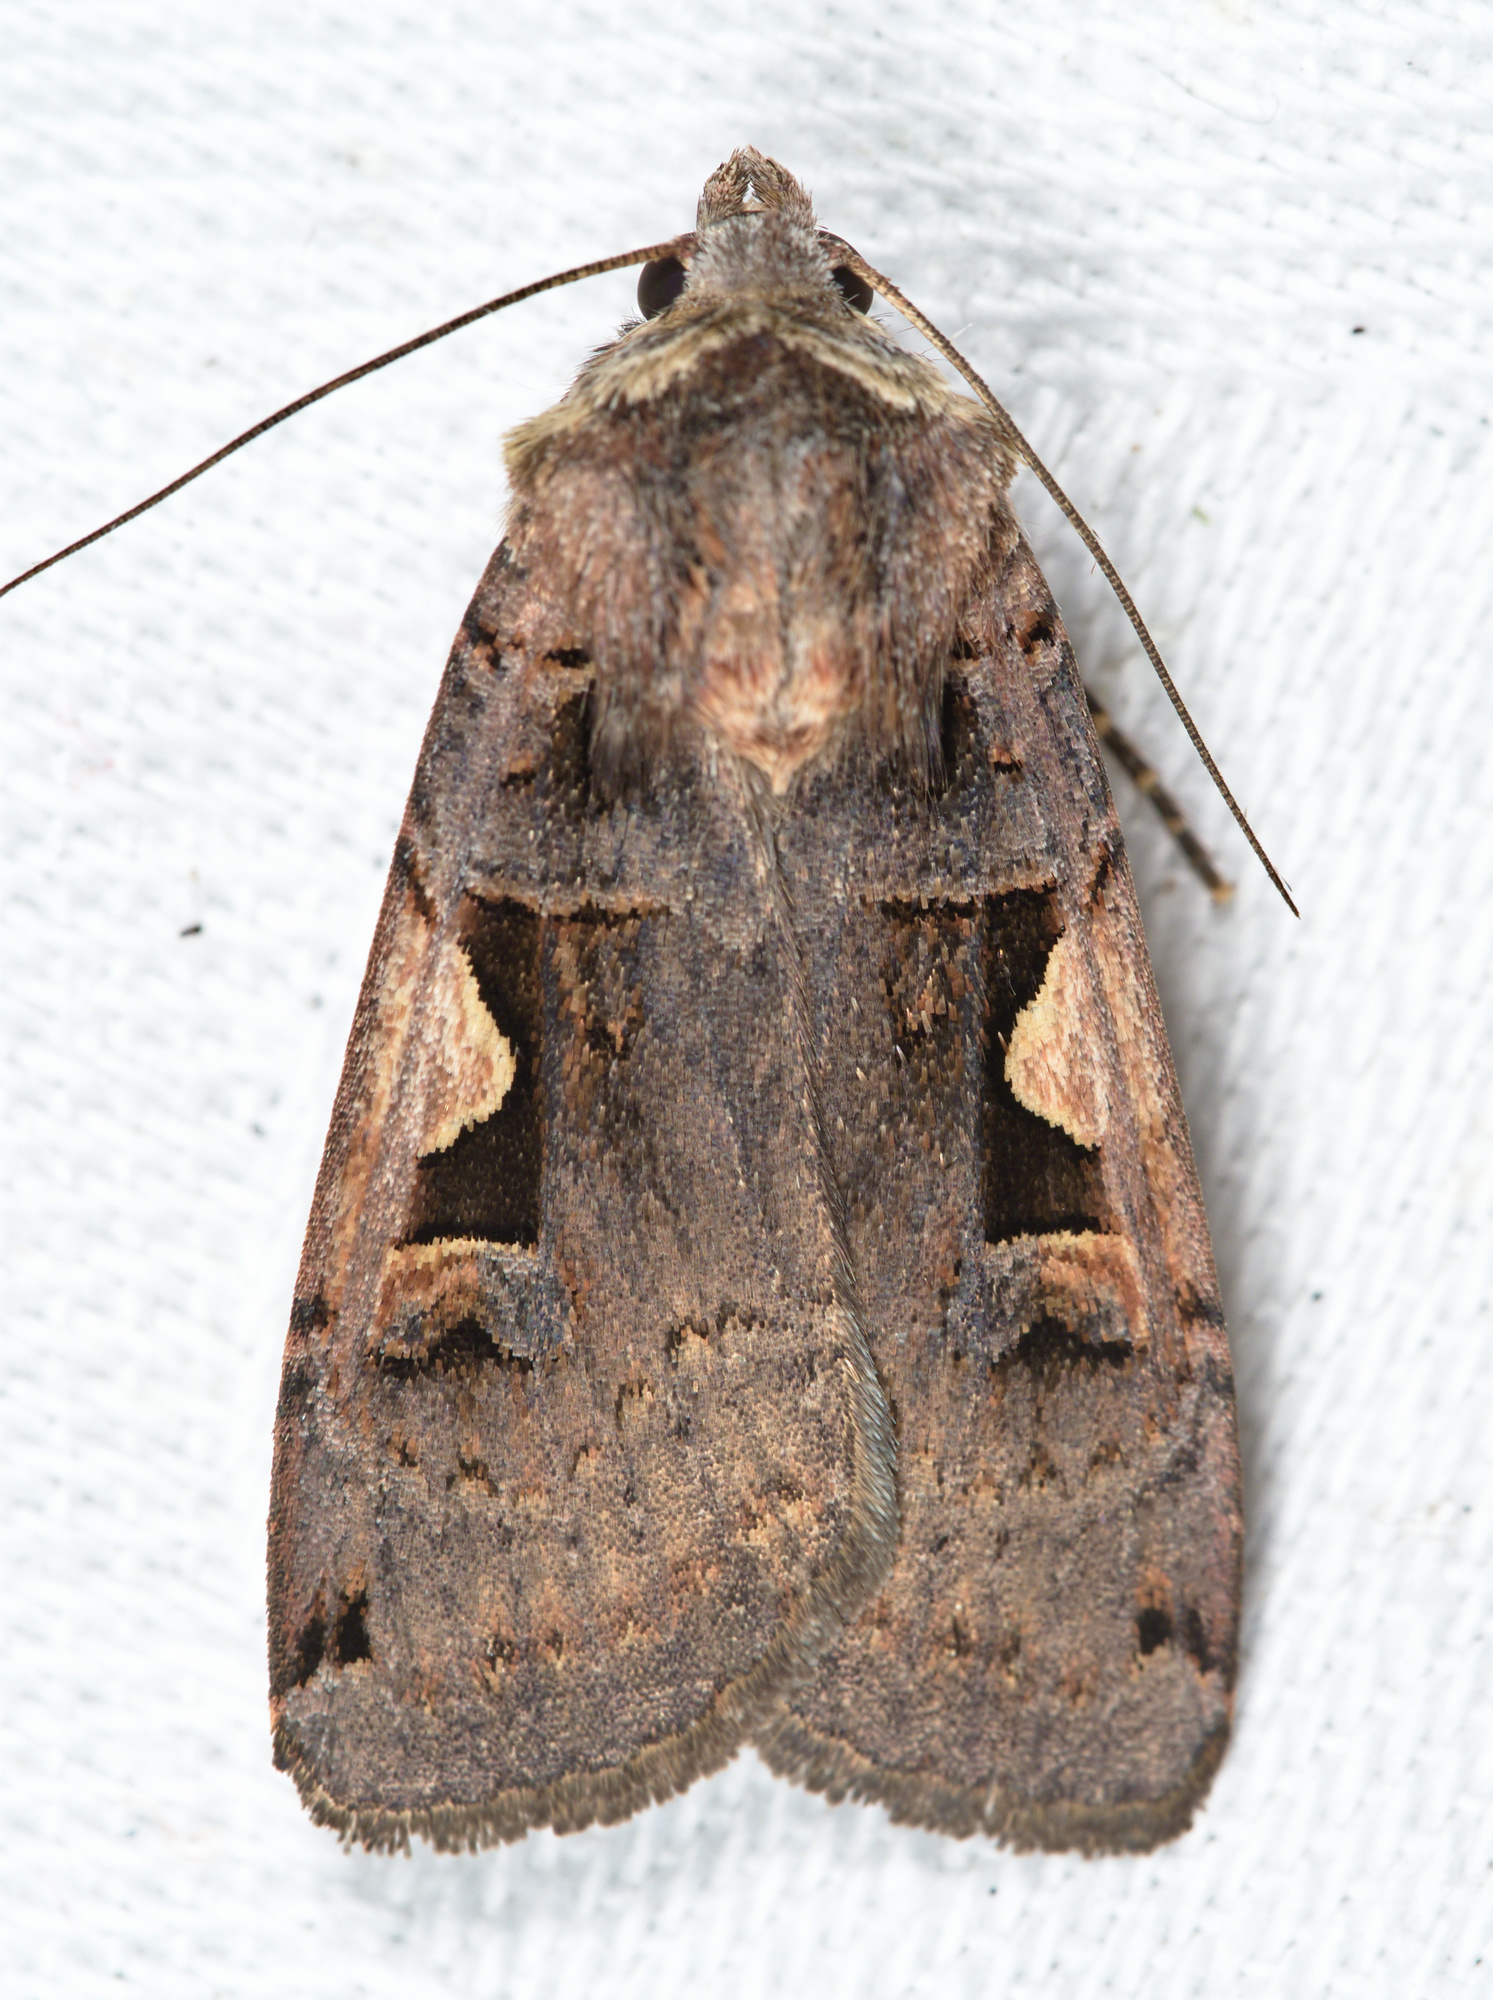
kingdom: Animalia
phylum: Arthropoda
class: Insecta
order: Lepidoptera
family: Noctuidae
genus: Xestia
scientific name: Xestia c-nigrum
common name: Setaceous hebrew character
